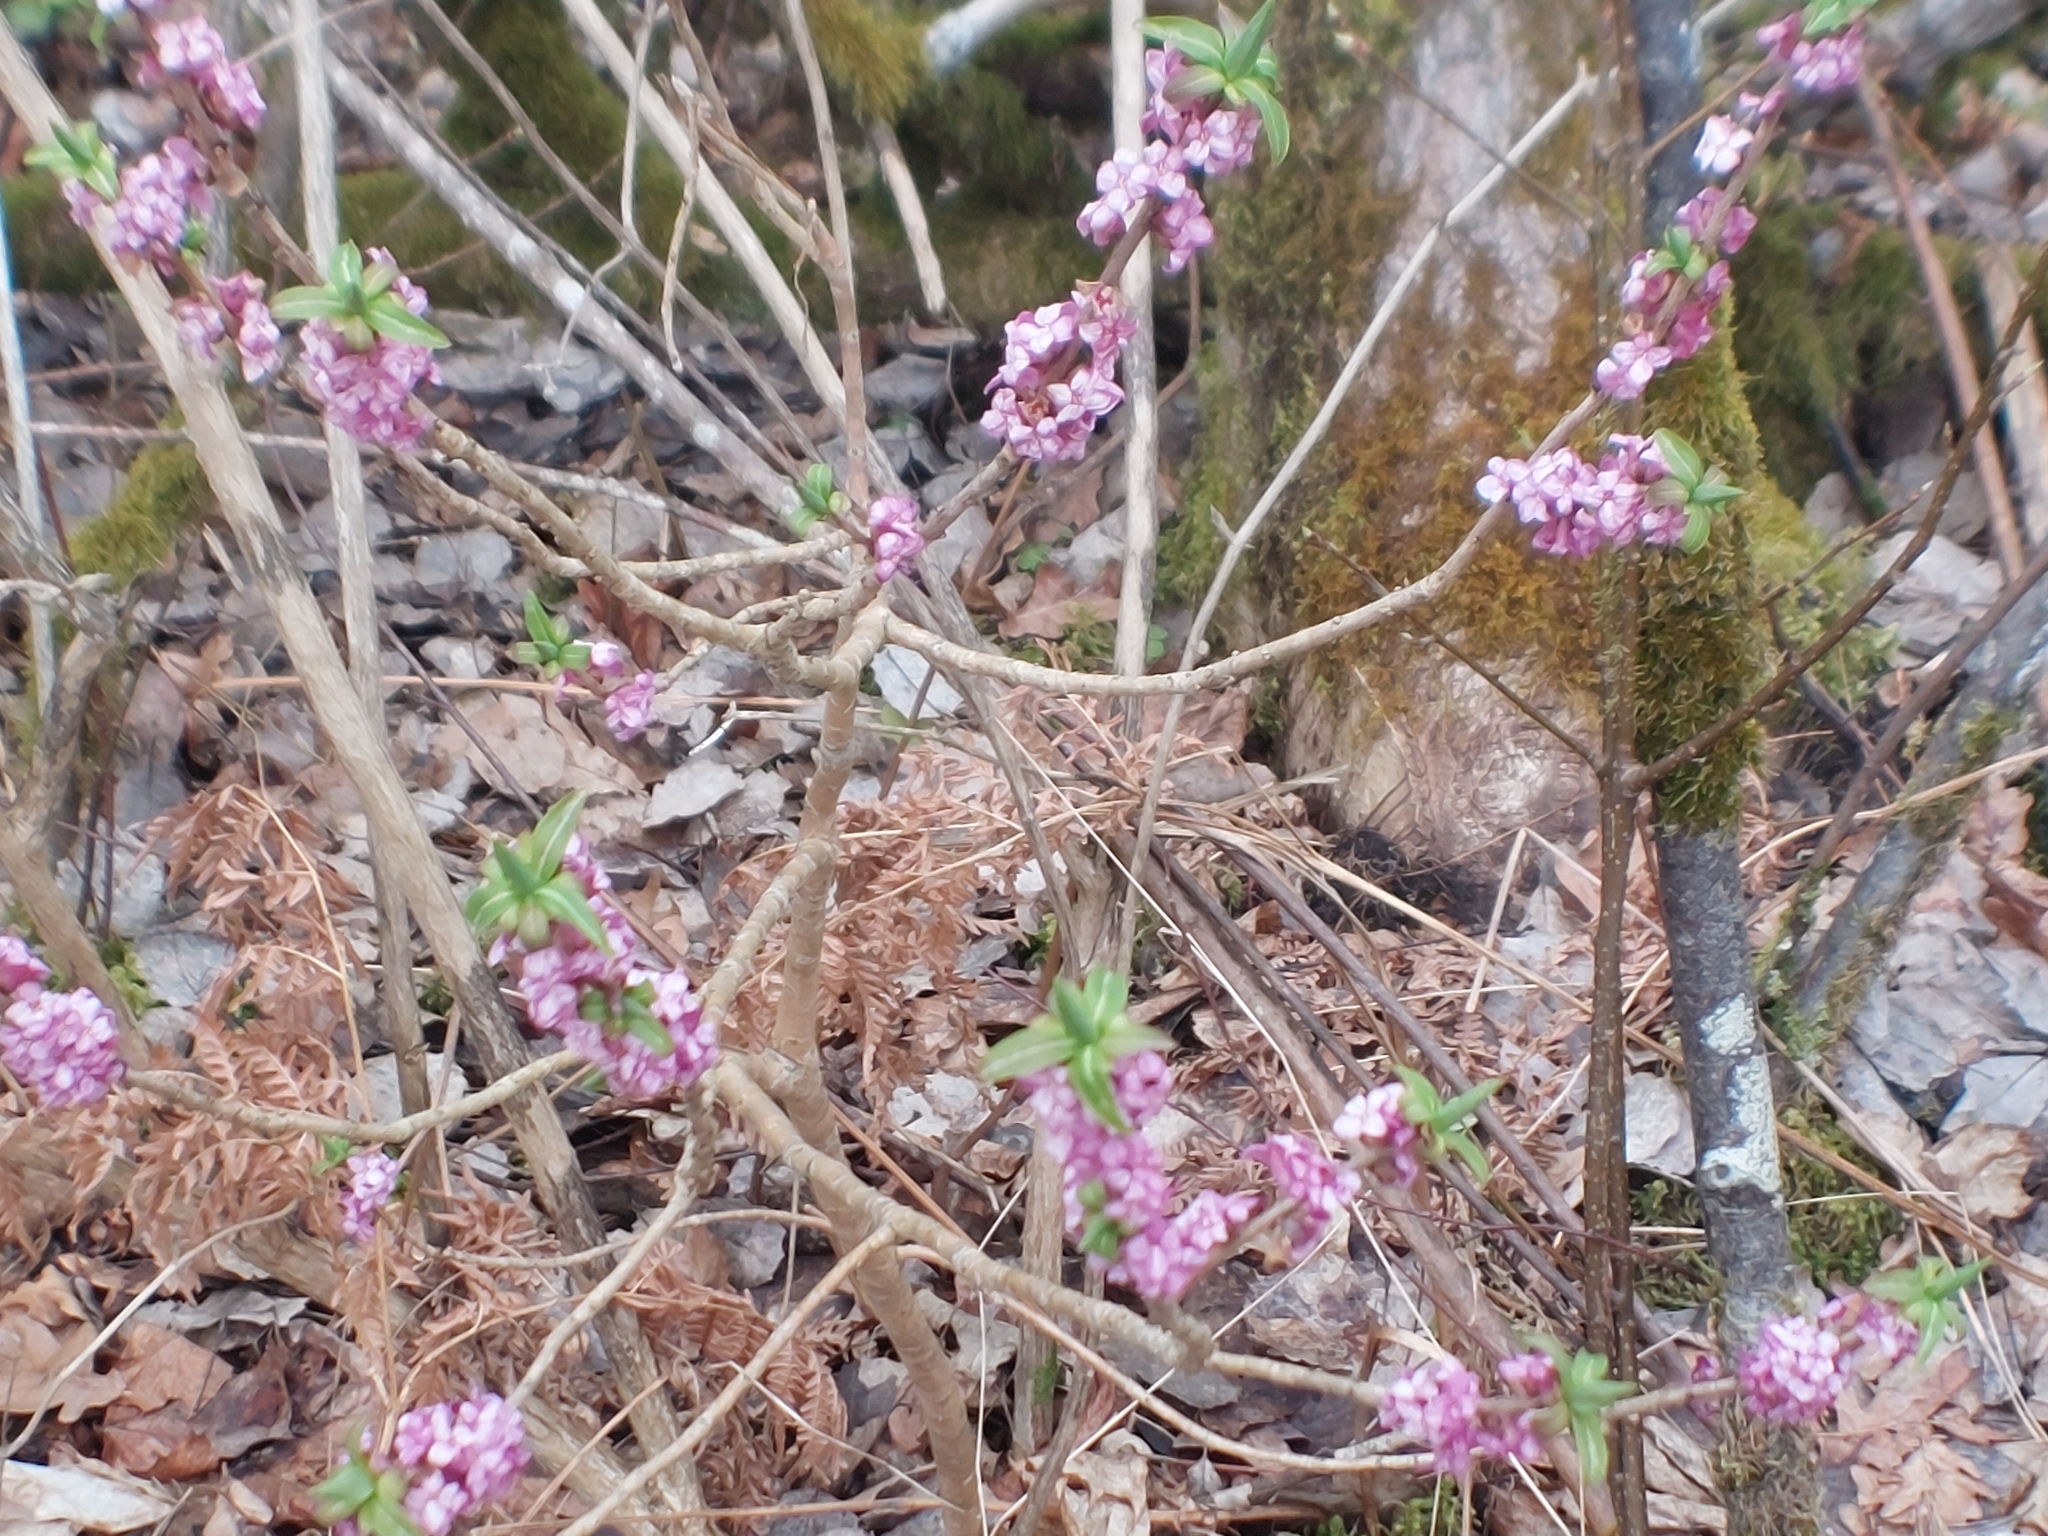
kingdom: Plantae
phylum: Tracheophyta
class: Magnoliopsida
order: Malvales
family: Thymelaeaceae
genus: Daphne
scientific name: Daphne mezereum
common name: Mezereon
